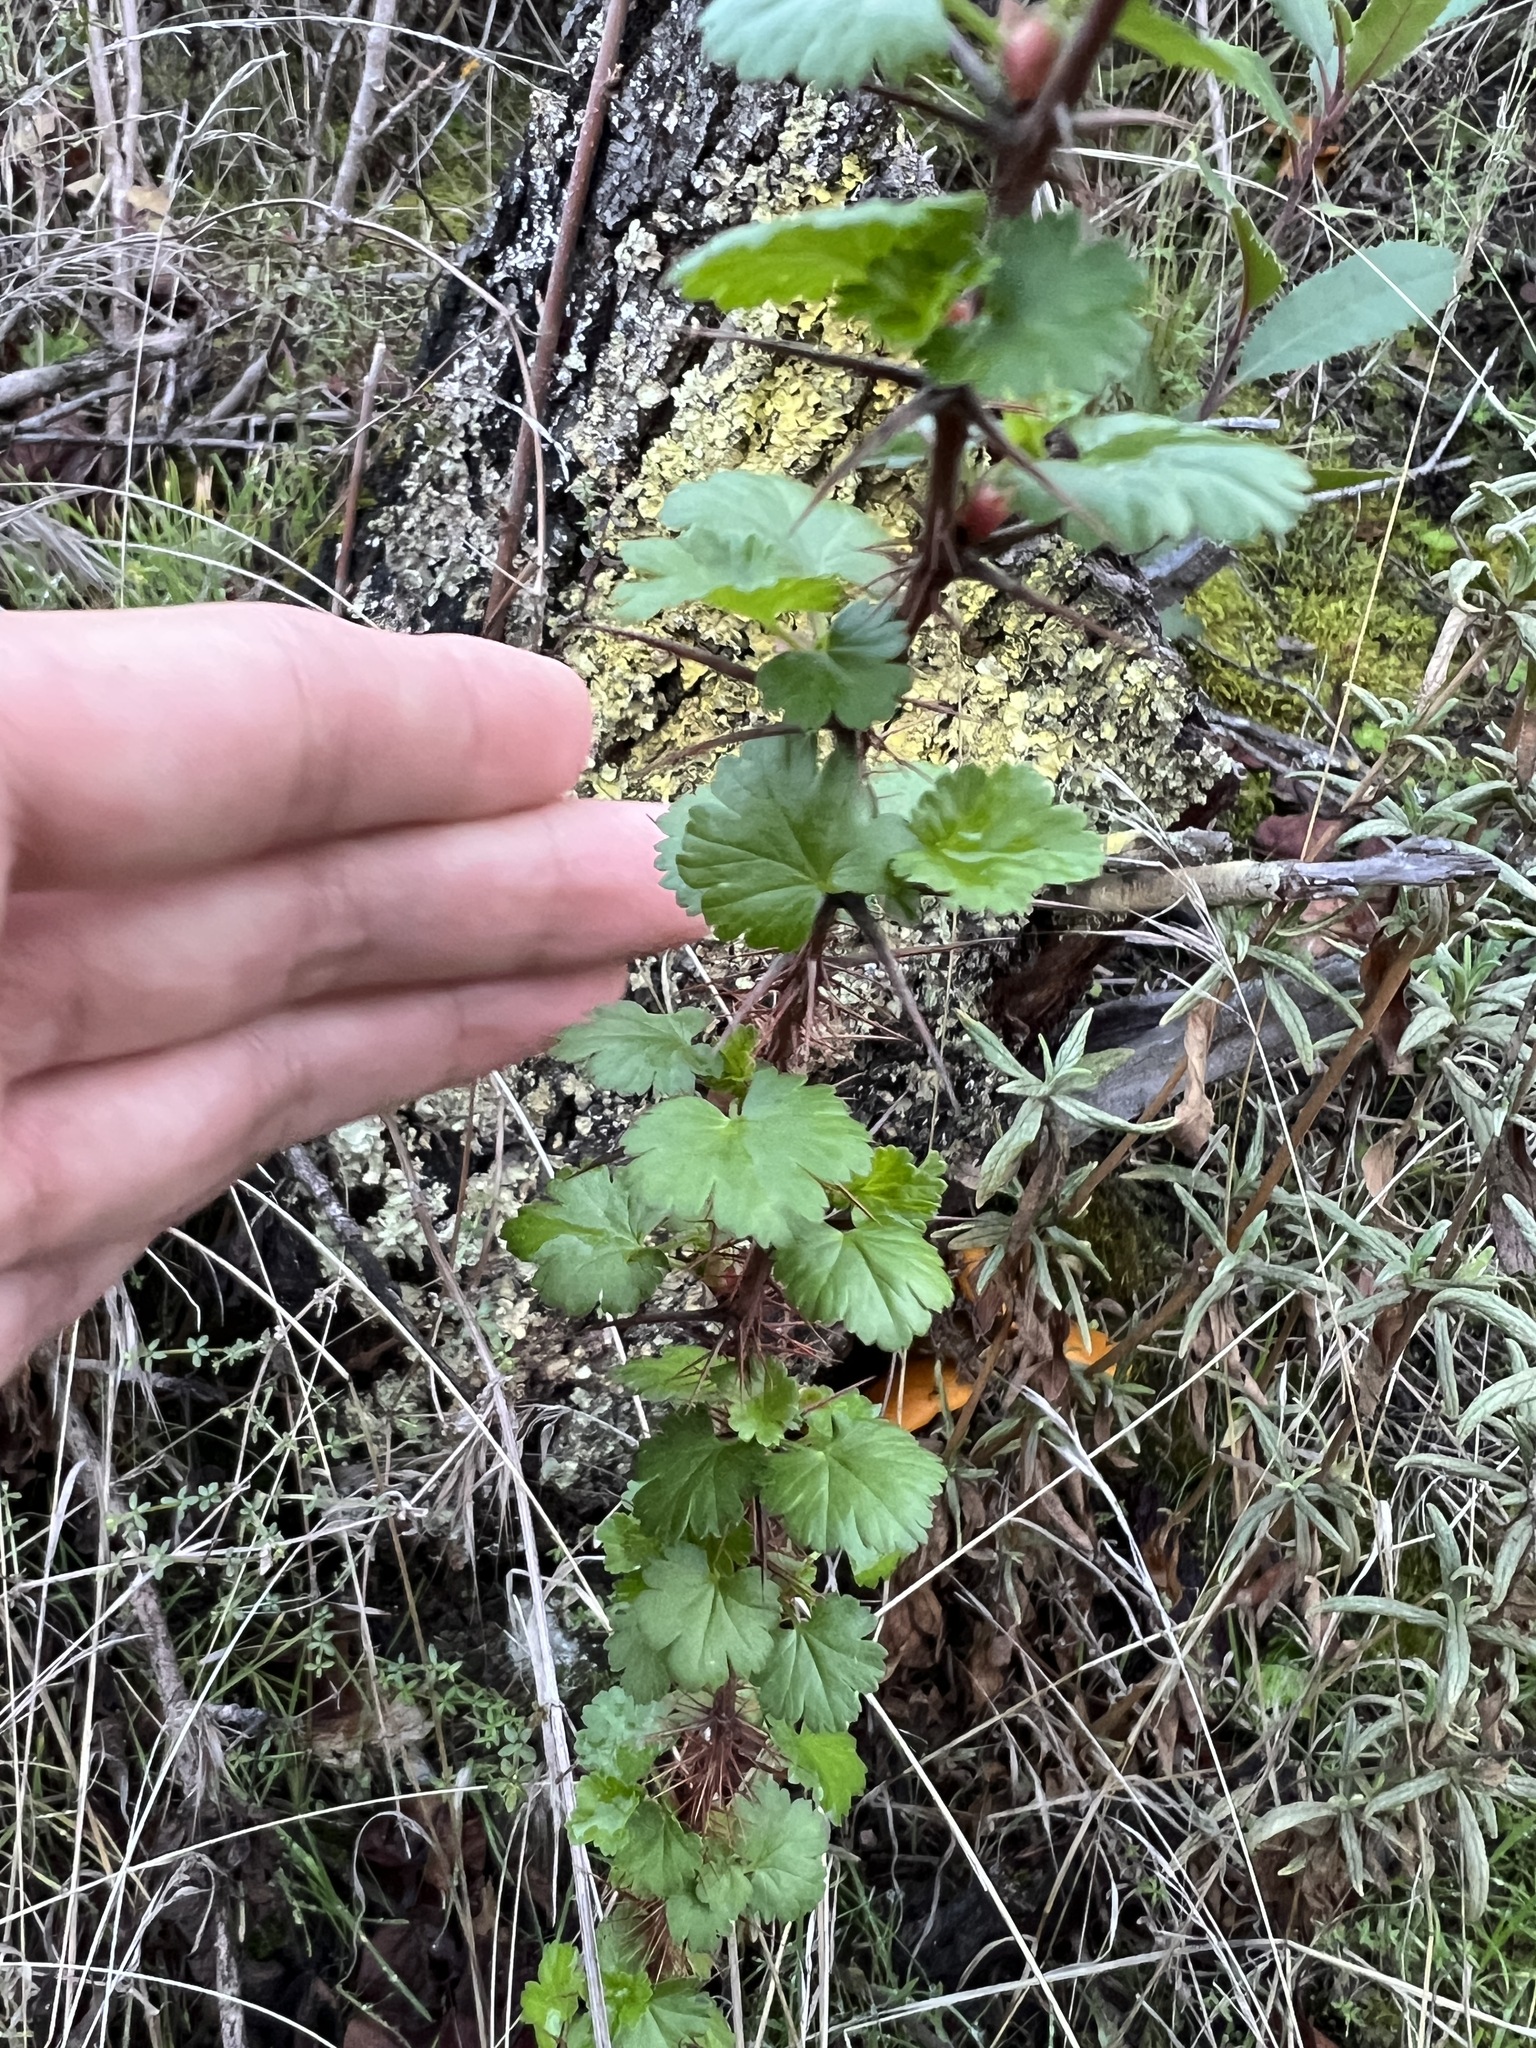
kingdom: Plantae
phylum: Tracheophyta
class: Magnoliopsida
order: Saxifragales
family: Grossulariaceae
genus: Ribes
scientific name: Ribes californicum
